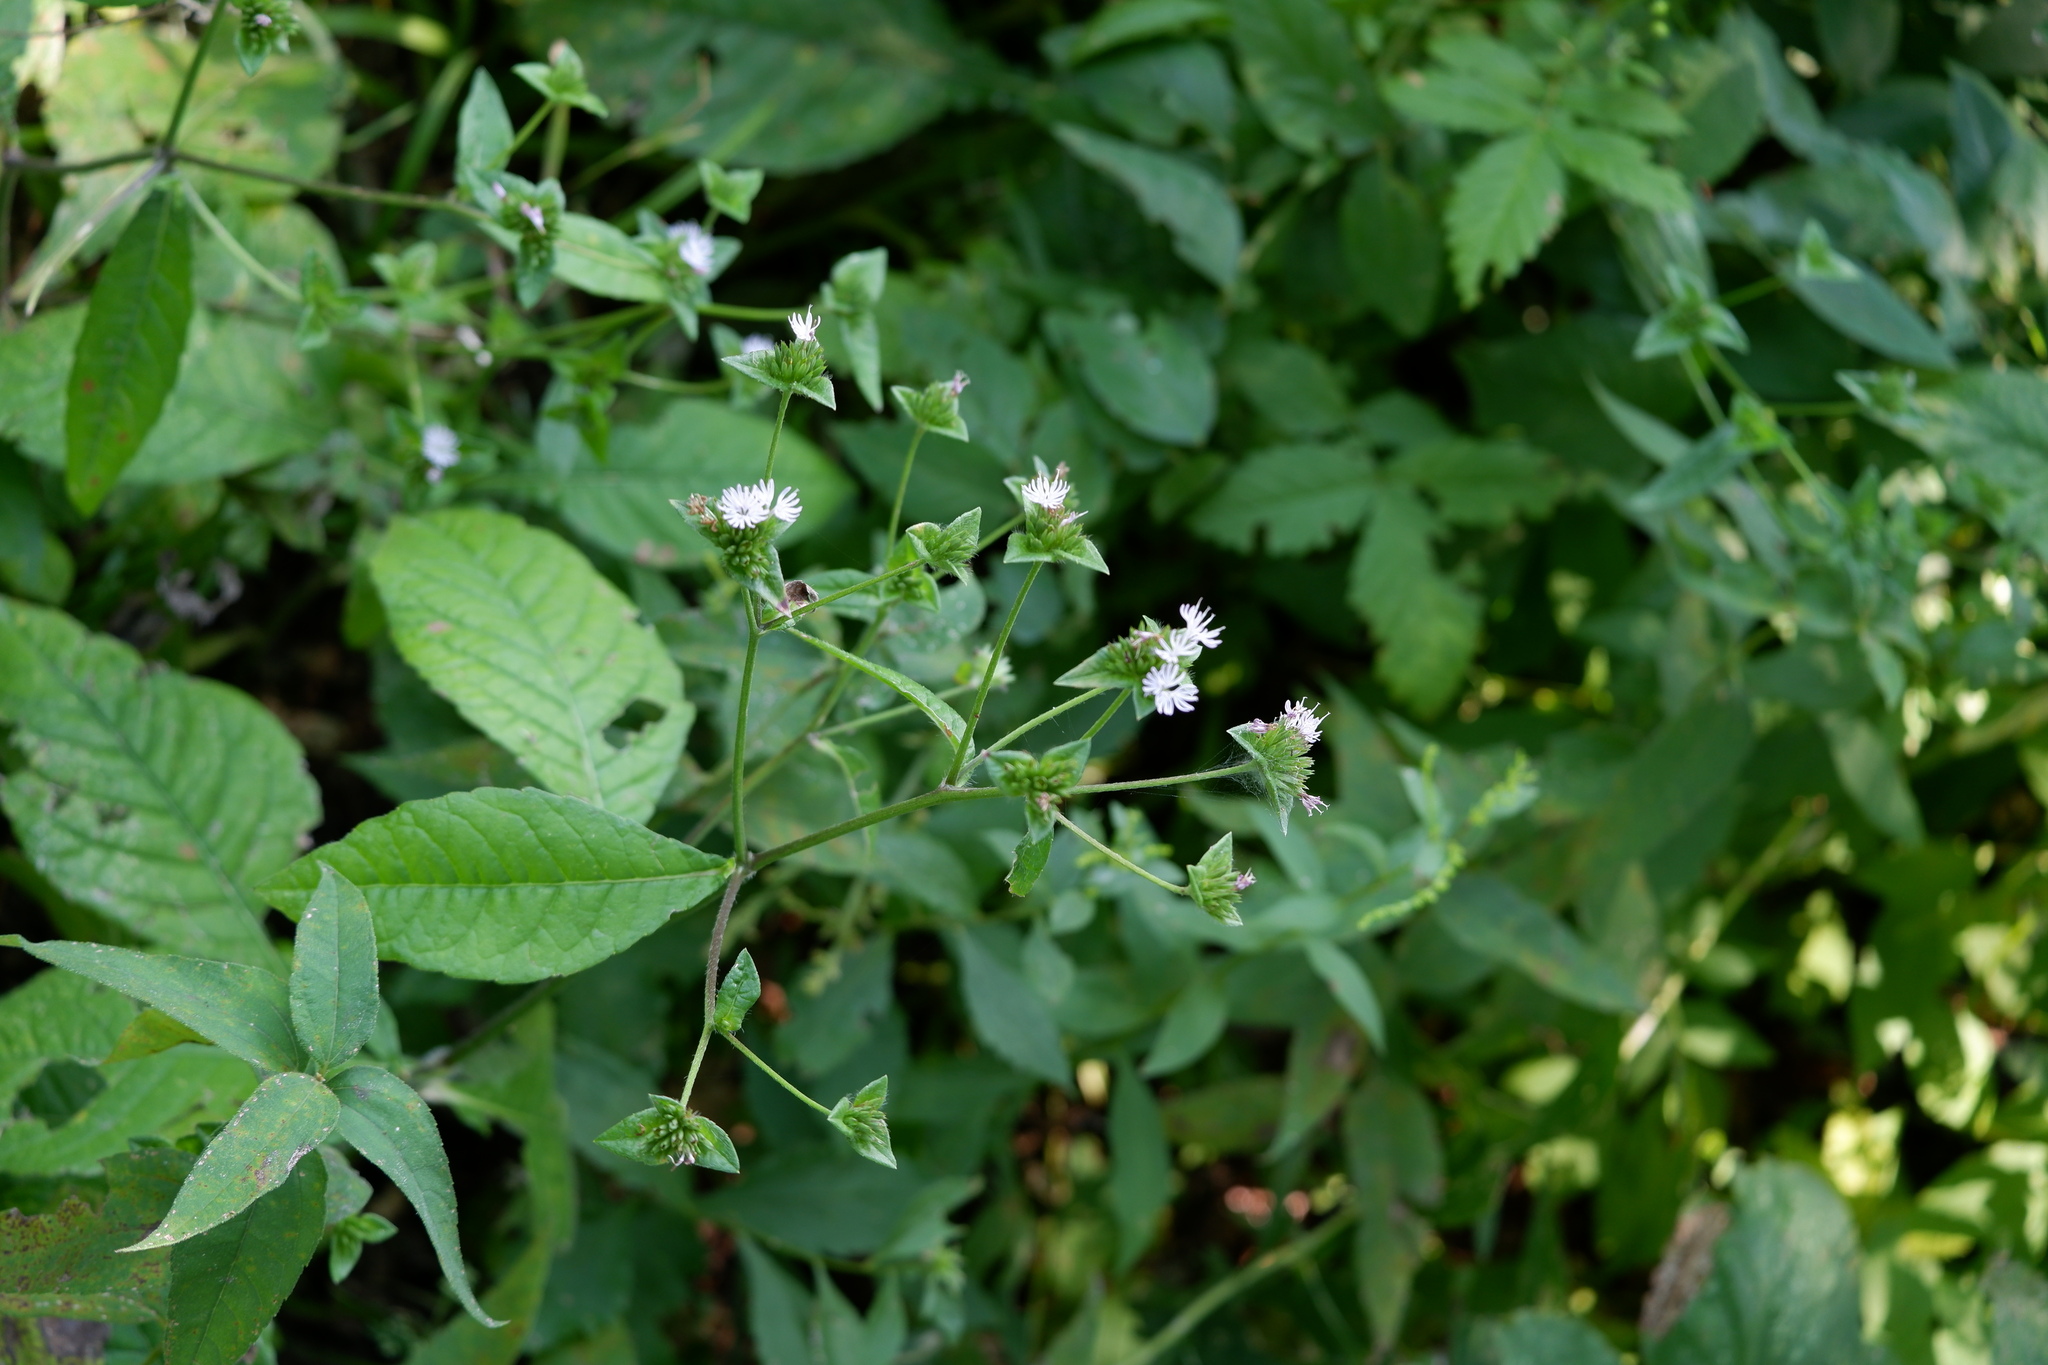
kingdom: Plantae
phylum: Tracheophyta
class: Magnoliopsida
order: Asterales
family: Asteraceae
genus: Elephantopus
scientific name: Elephantopus carolinianus
